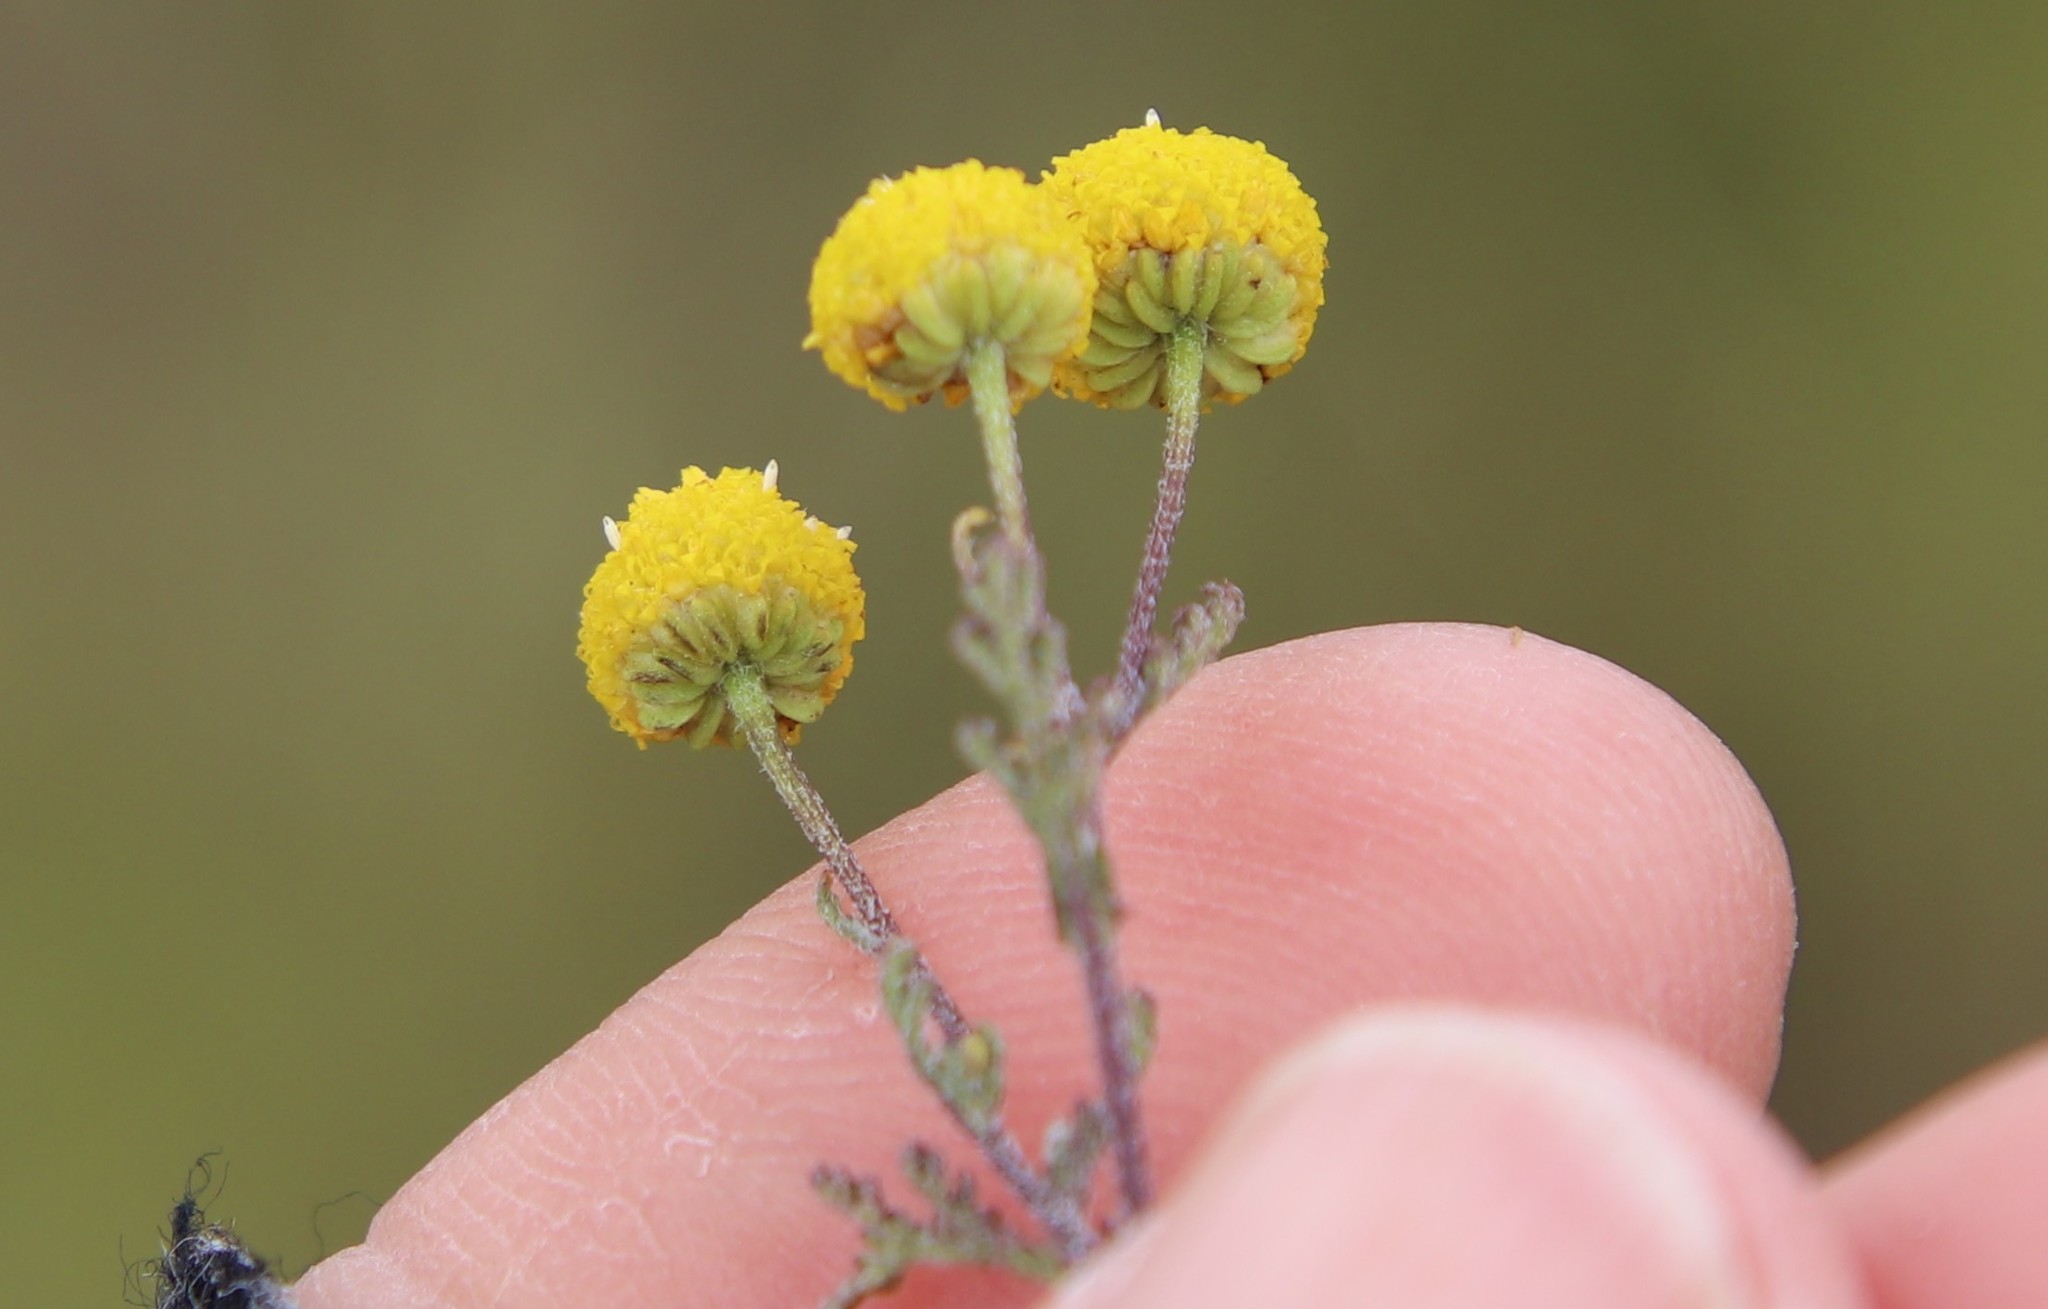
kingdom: Plantae
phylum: Tracheophyta
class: Magnoliopsida
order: Asterales
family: Asteraceae
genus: Oncosiphon
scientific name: Oncosiphon pilulifer
